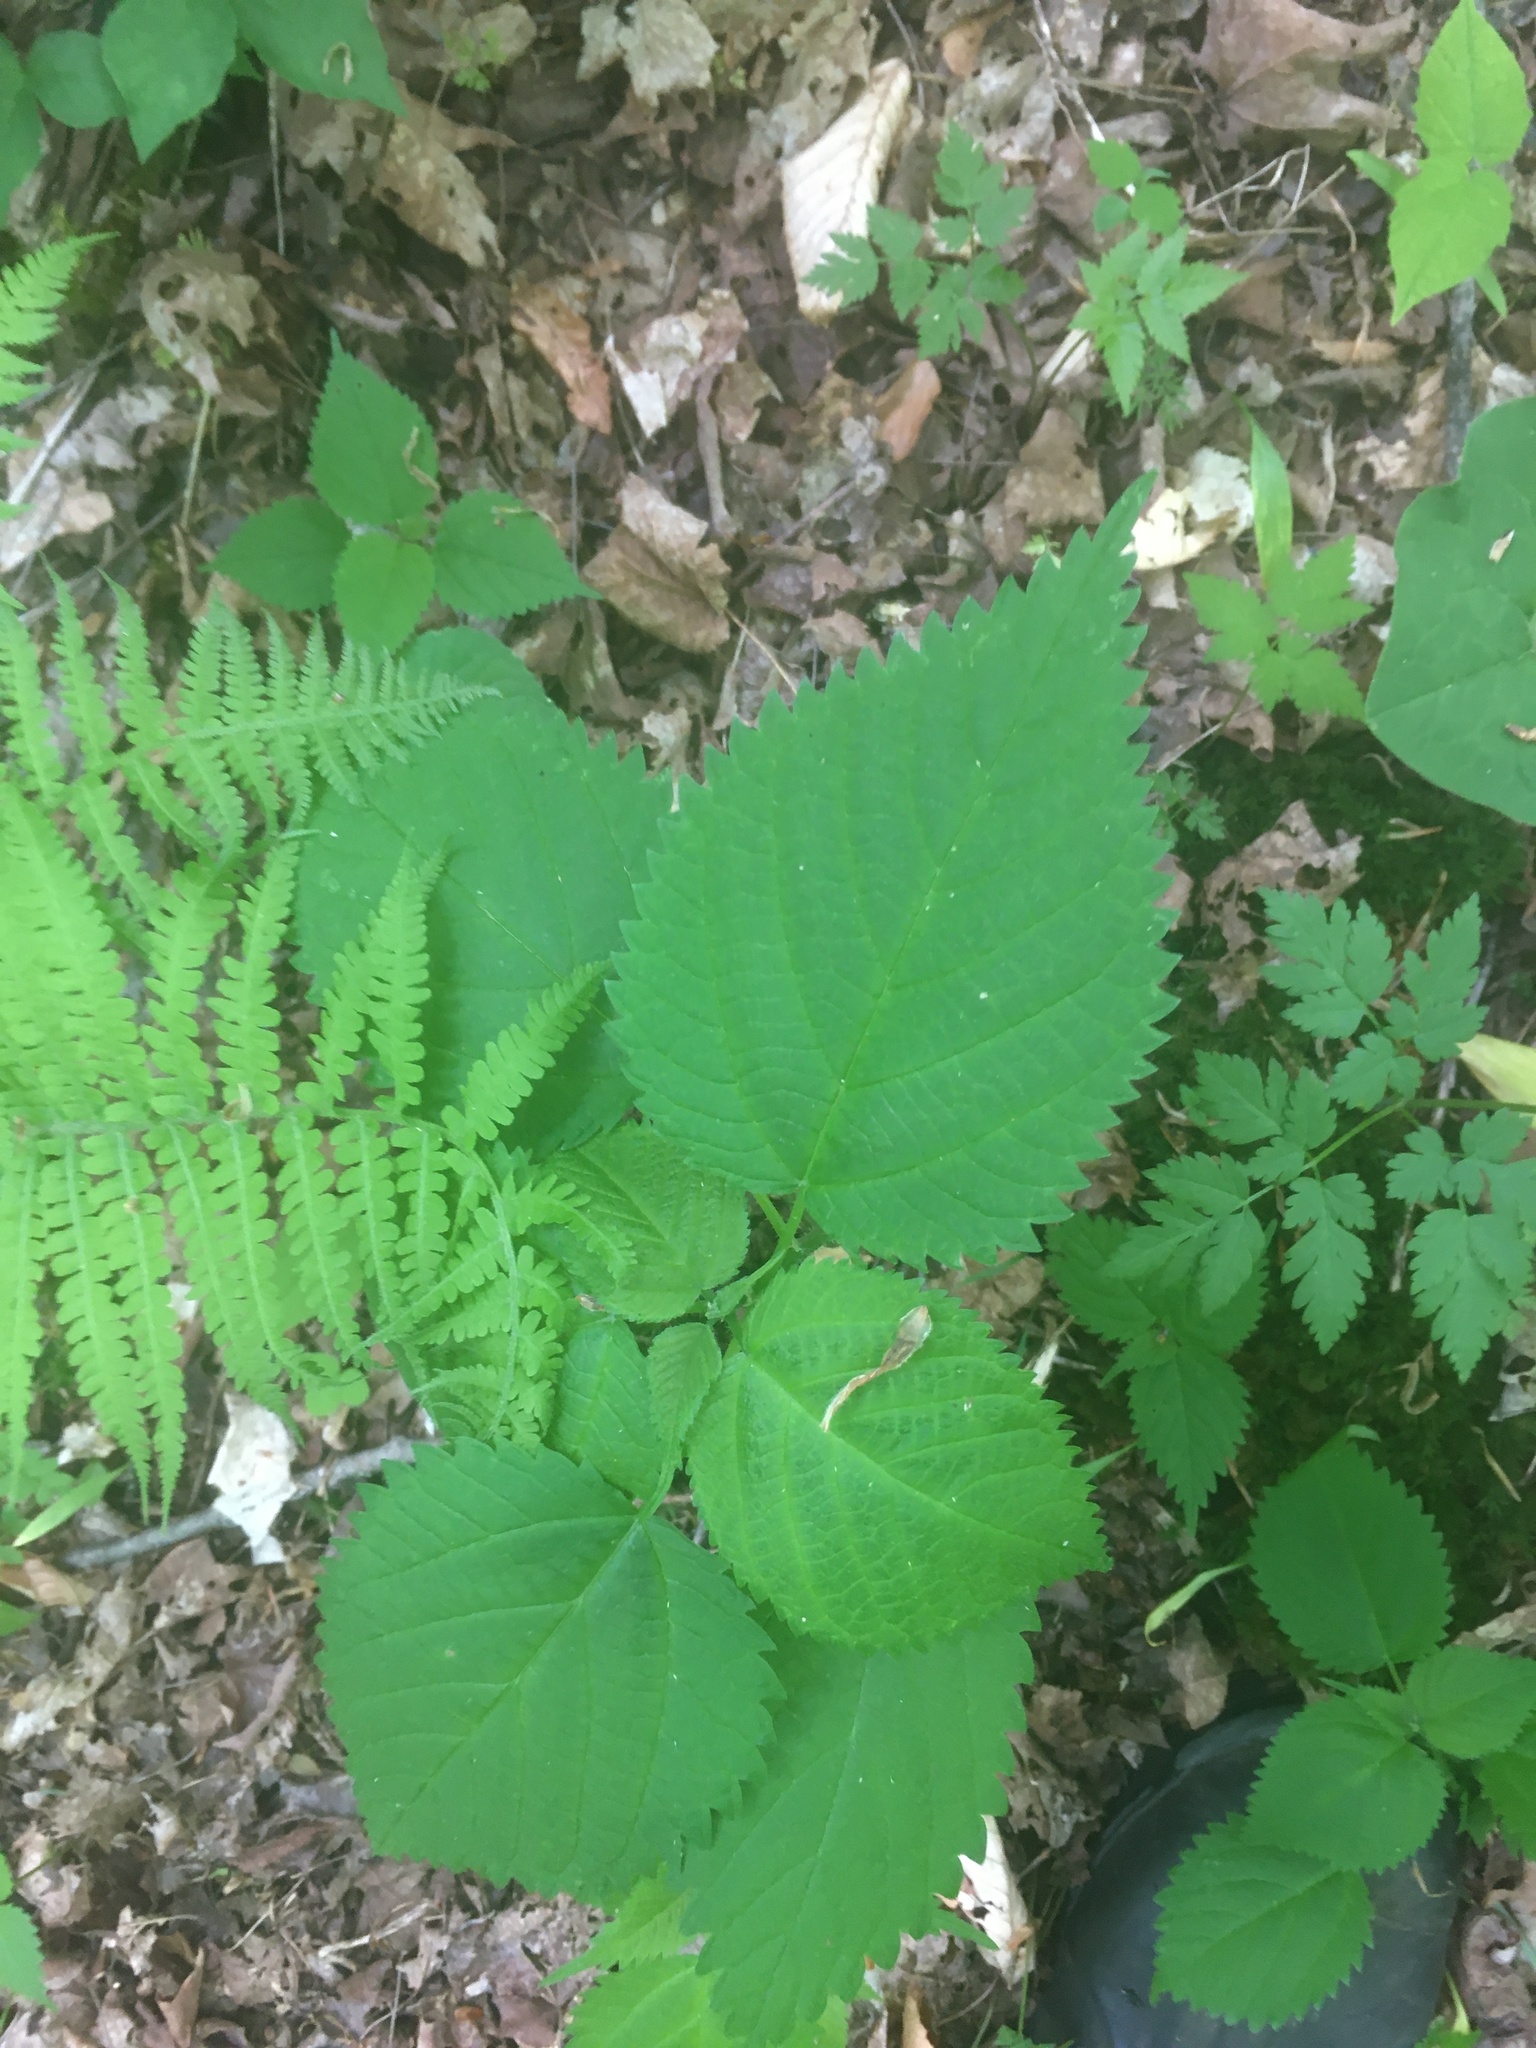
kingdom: Plantae
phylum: Tracheophyta
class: Magnoliopsida
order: Rosales
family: Urticaceae
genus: Laportea
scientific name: Laportea canadensis
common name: Canada nettle
